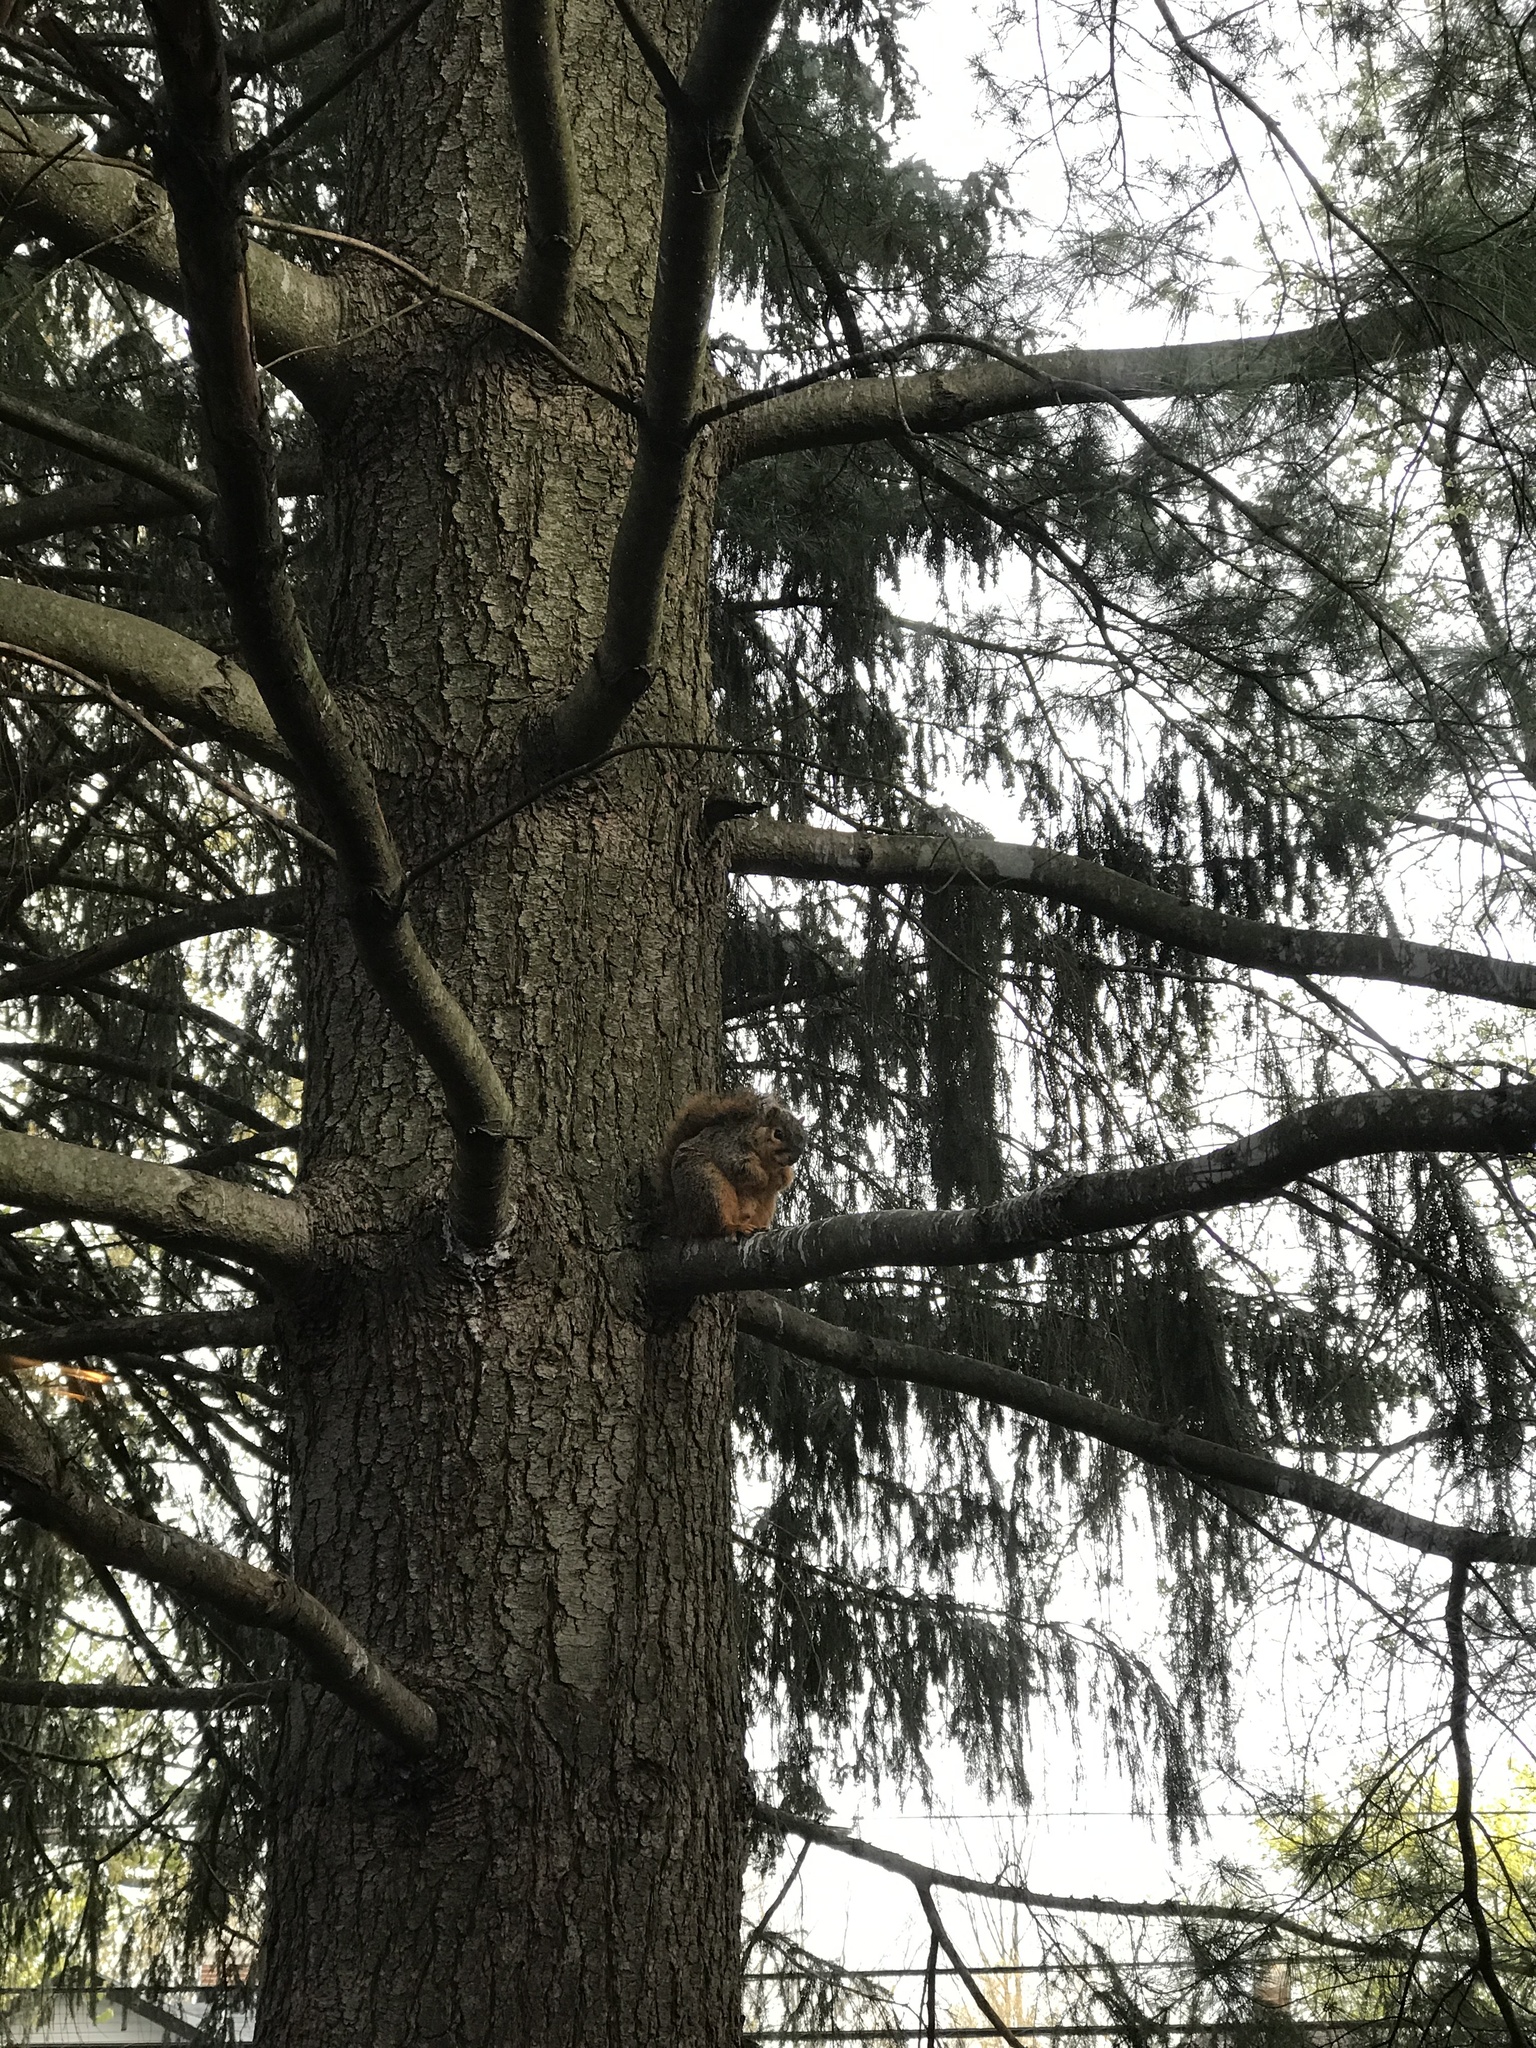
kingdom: Animalia
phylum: Chordata
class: Mammalia
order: Rodentia
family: Sciuridae
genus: Sciurus
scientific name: Sciurus niger
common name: Fox squirrel
